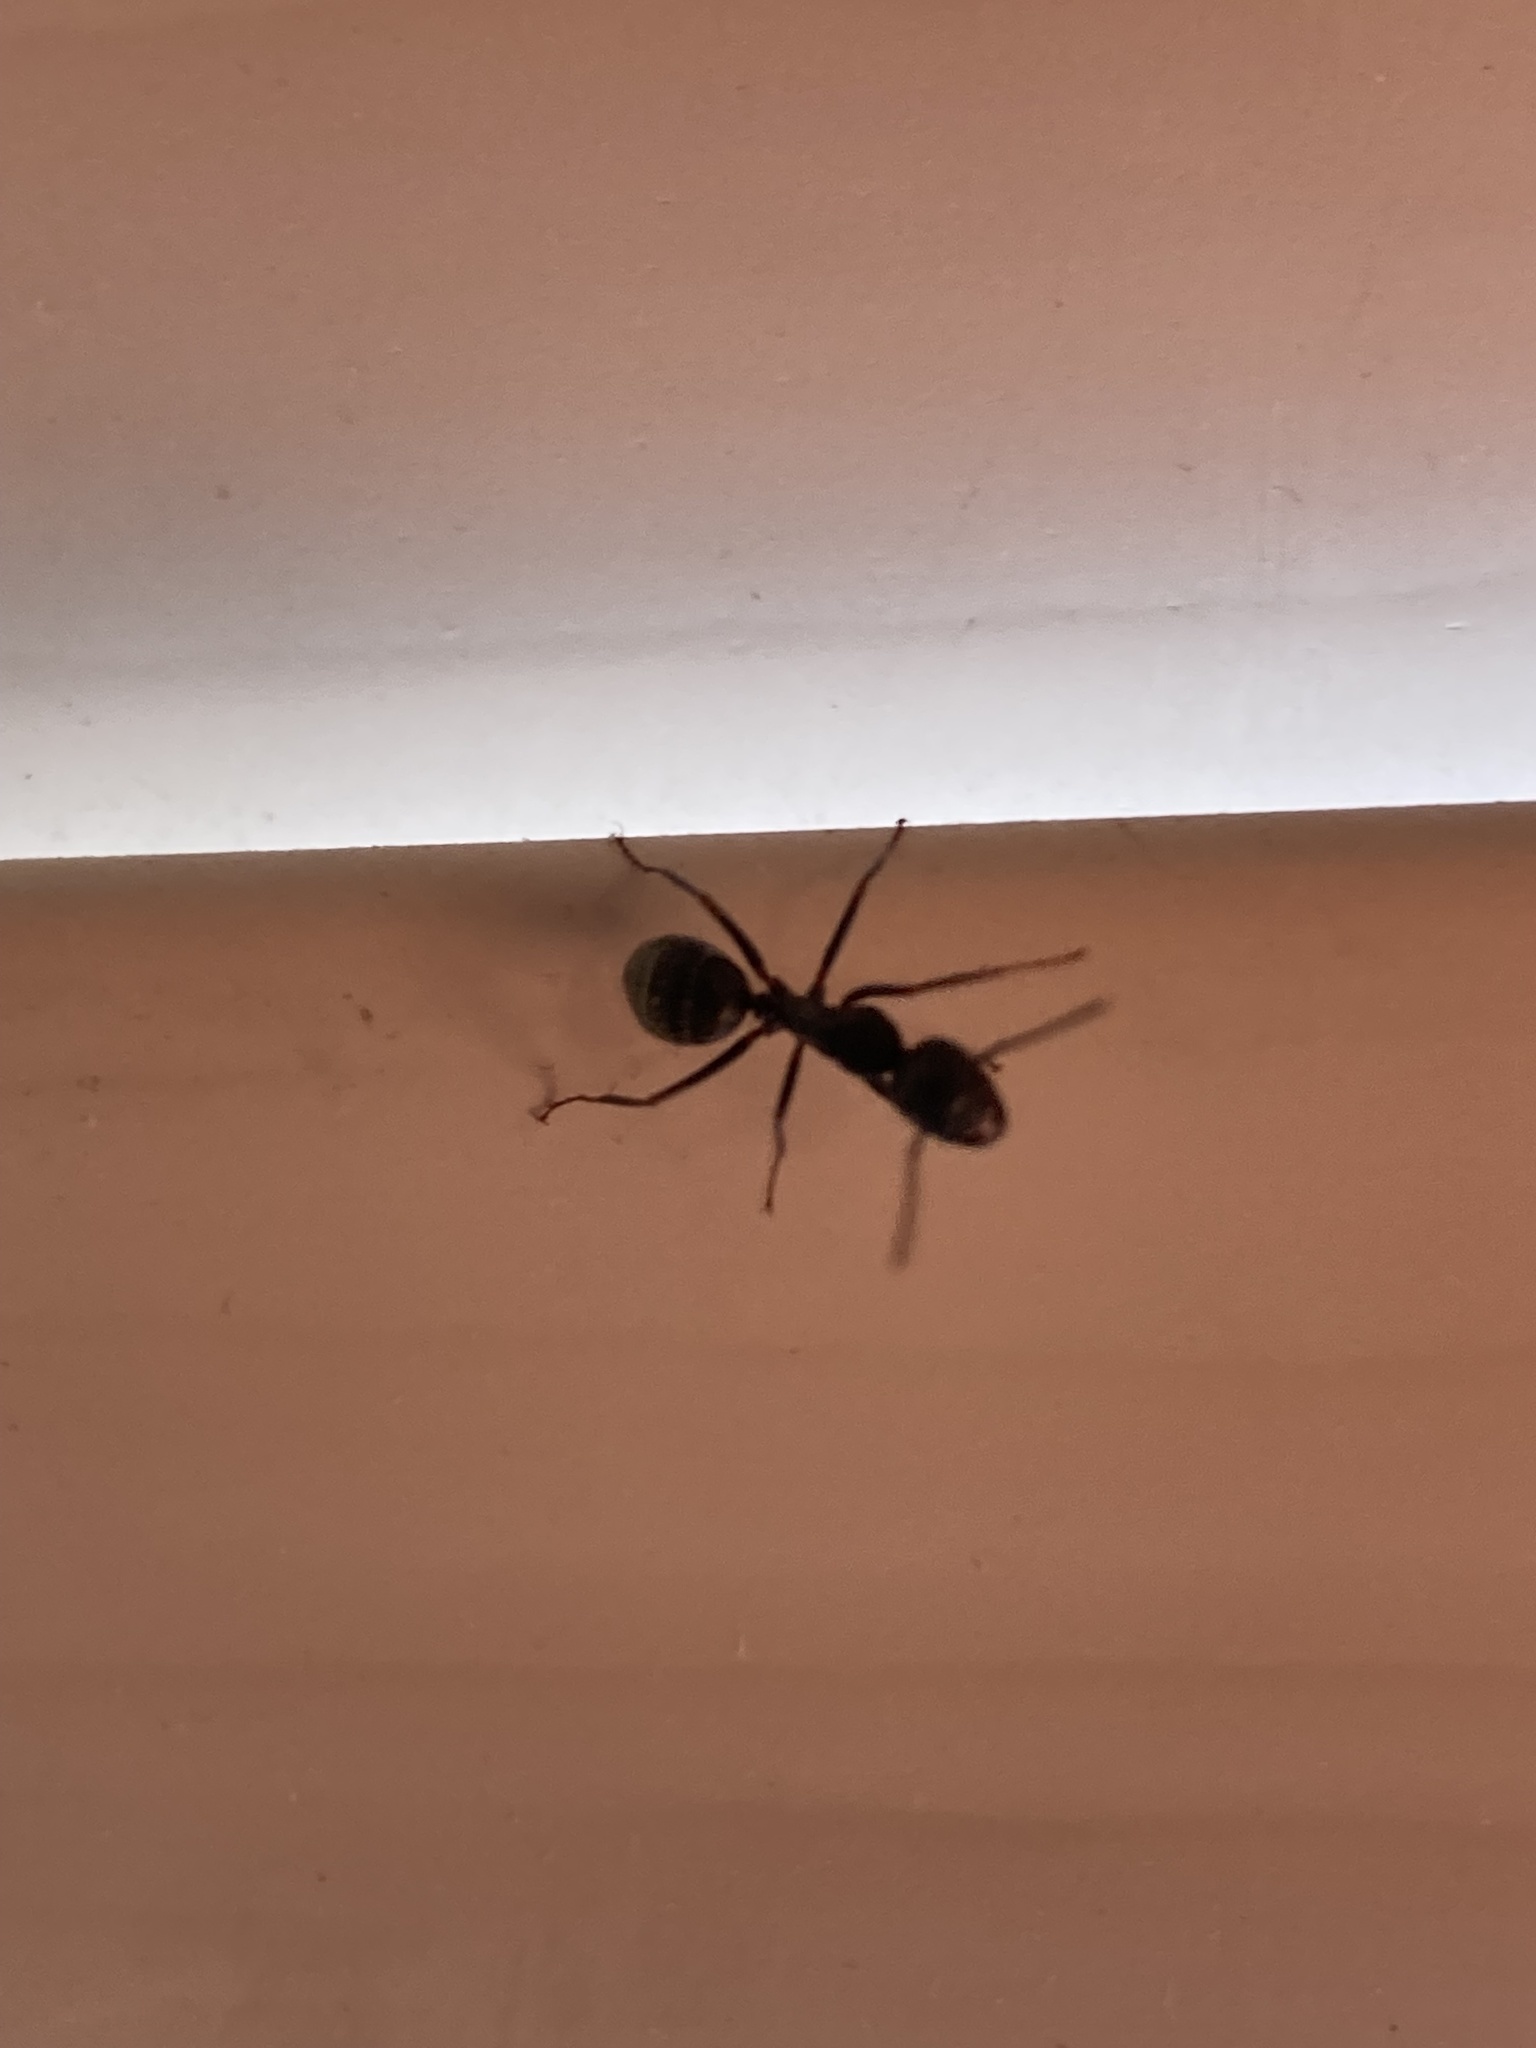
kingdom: Animalia
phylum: Arthropoda
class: Insecta
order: Hymenoptera
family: Formicidae
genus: Camponotus
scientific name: Camponotus pennsylvanicus
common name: Black carpenter ant
